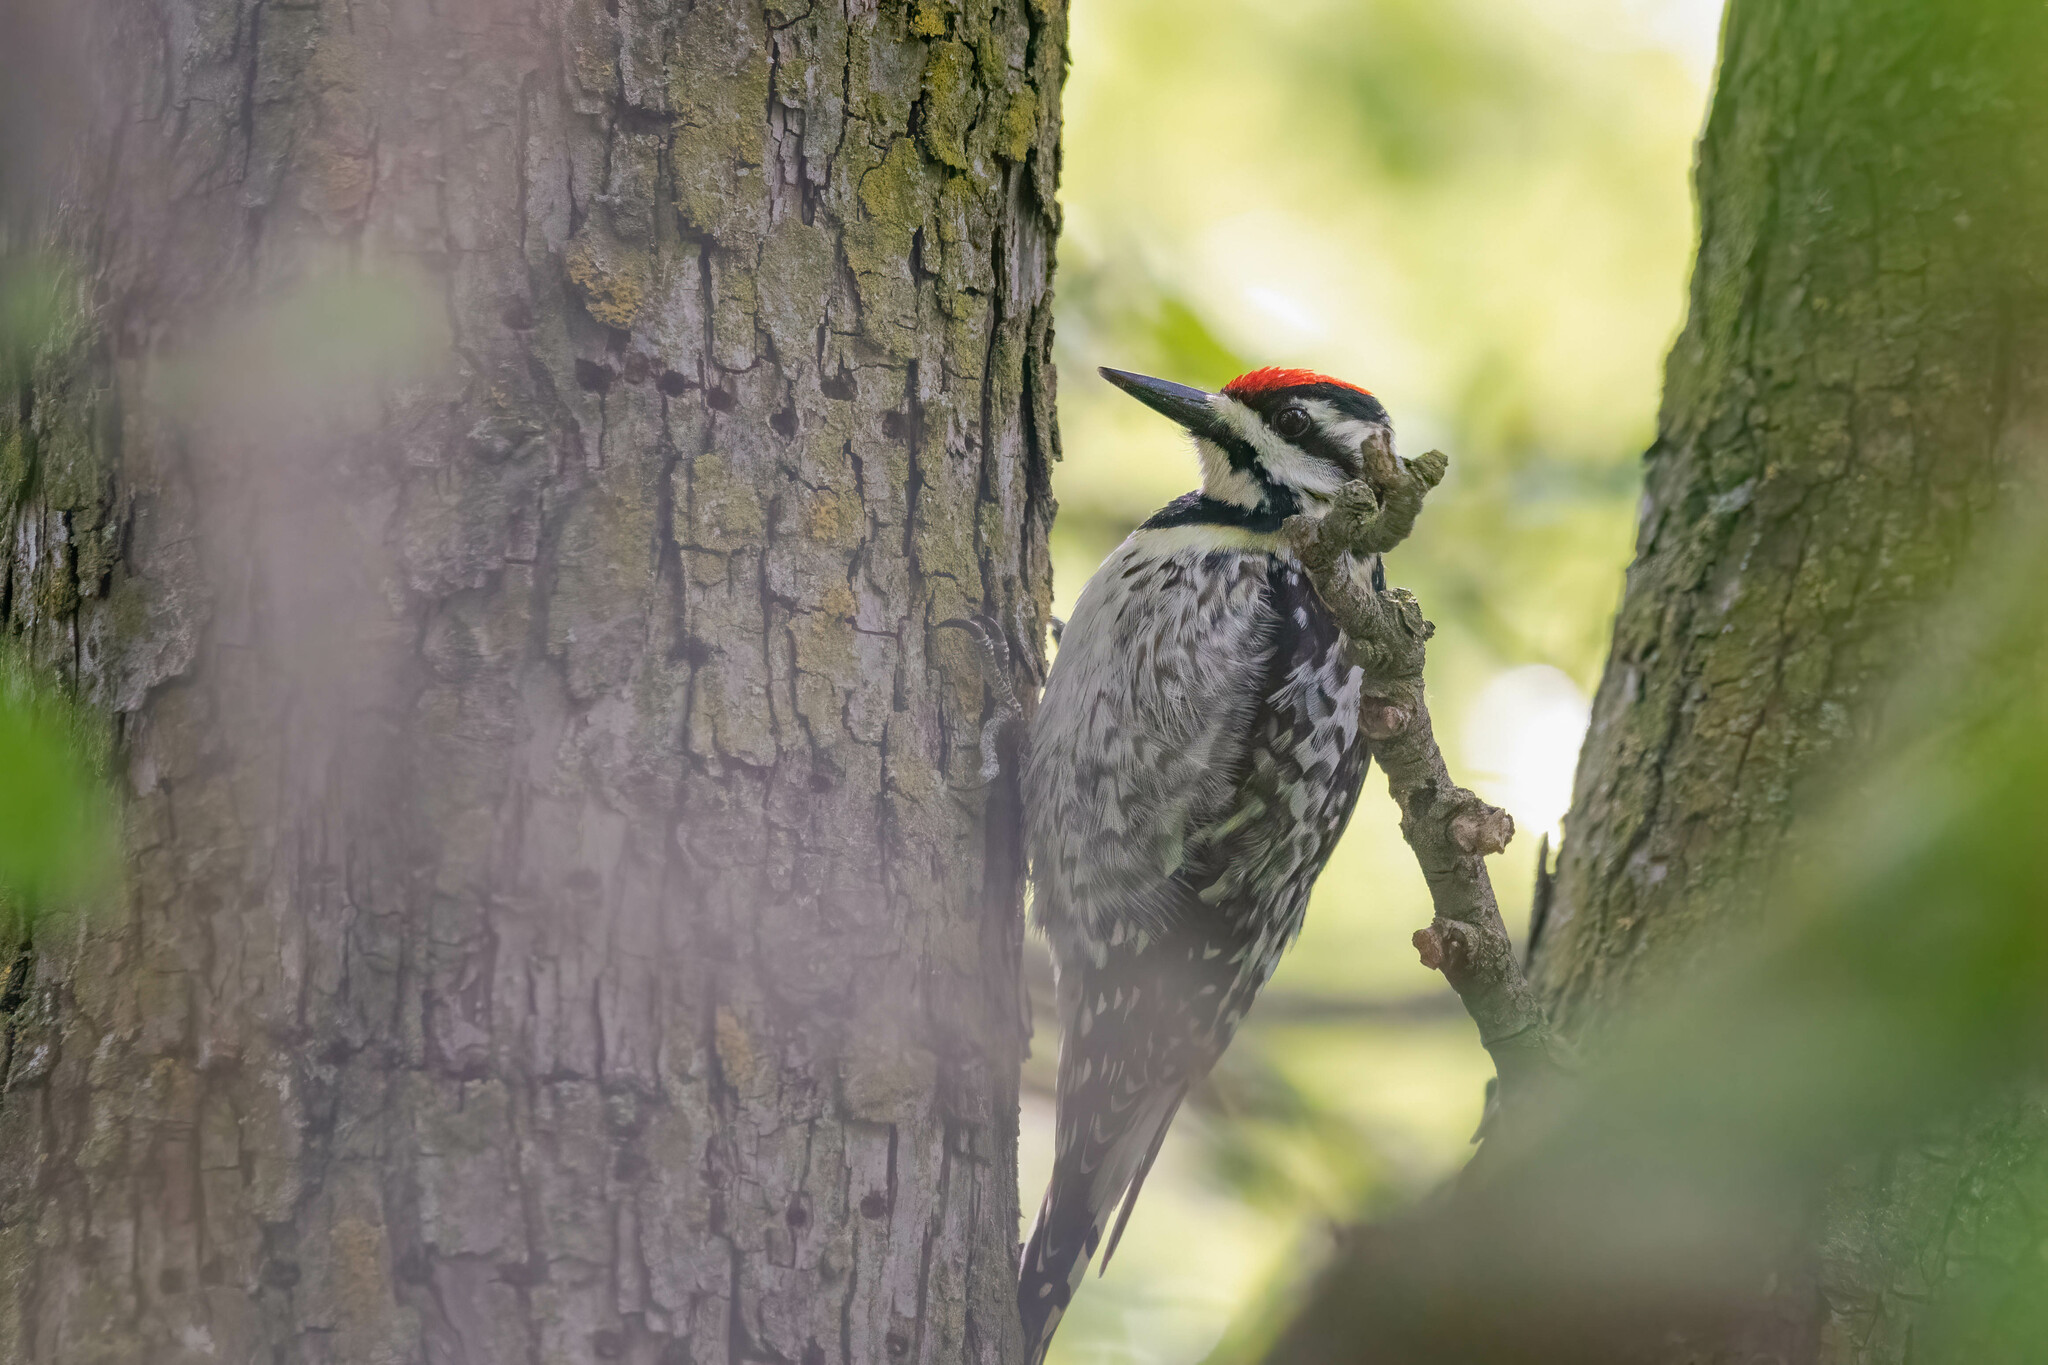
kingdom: Animalia
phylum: Chordata
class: Aves
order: Piciformes
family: Picidae
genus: Sphyrapicus
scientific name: Sphyrapicus varius
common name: Yellow-bellied sapsucker
